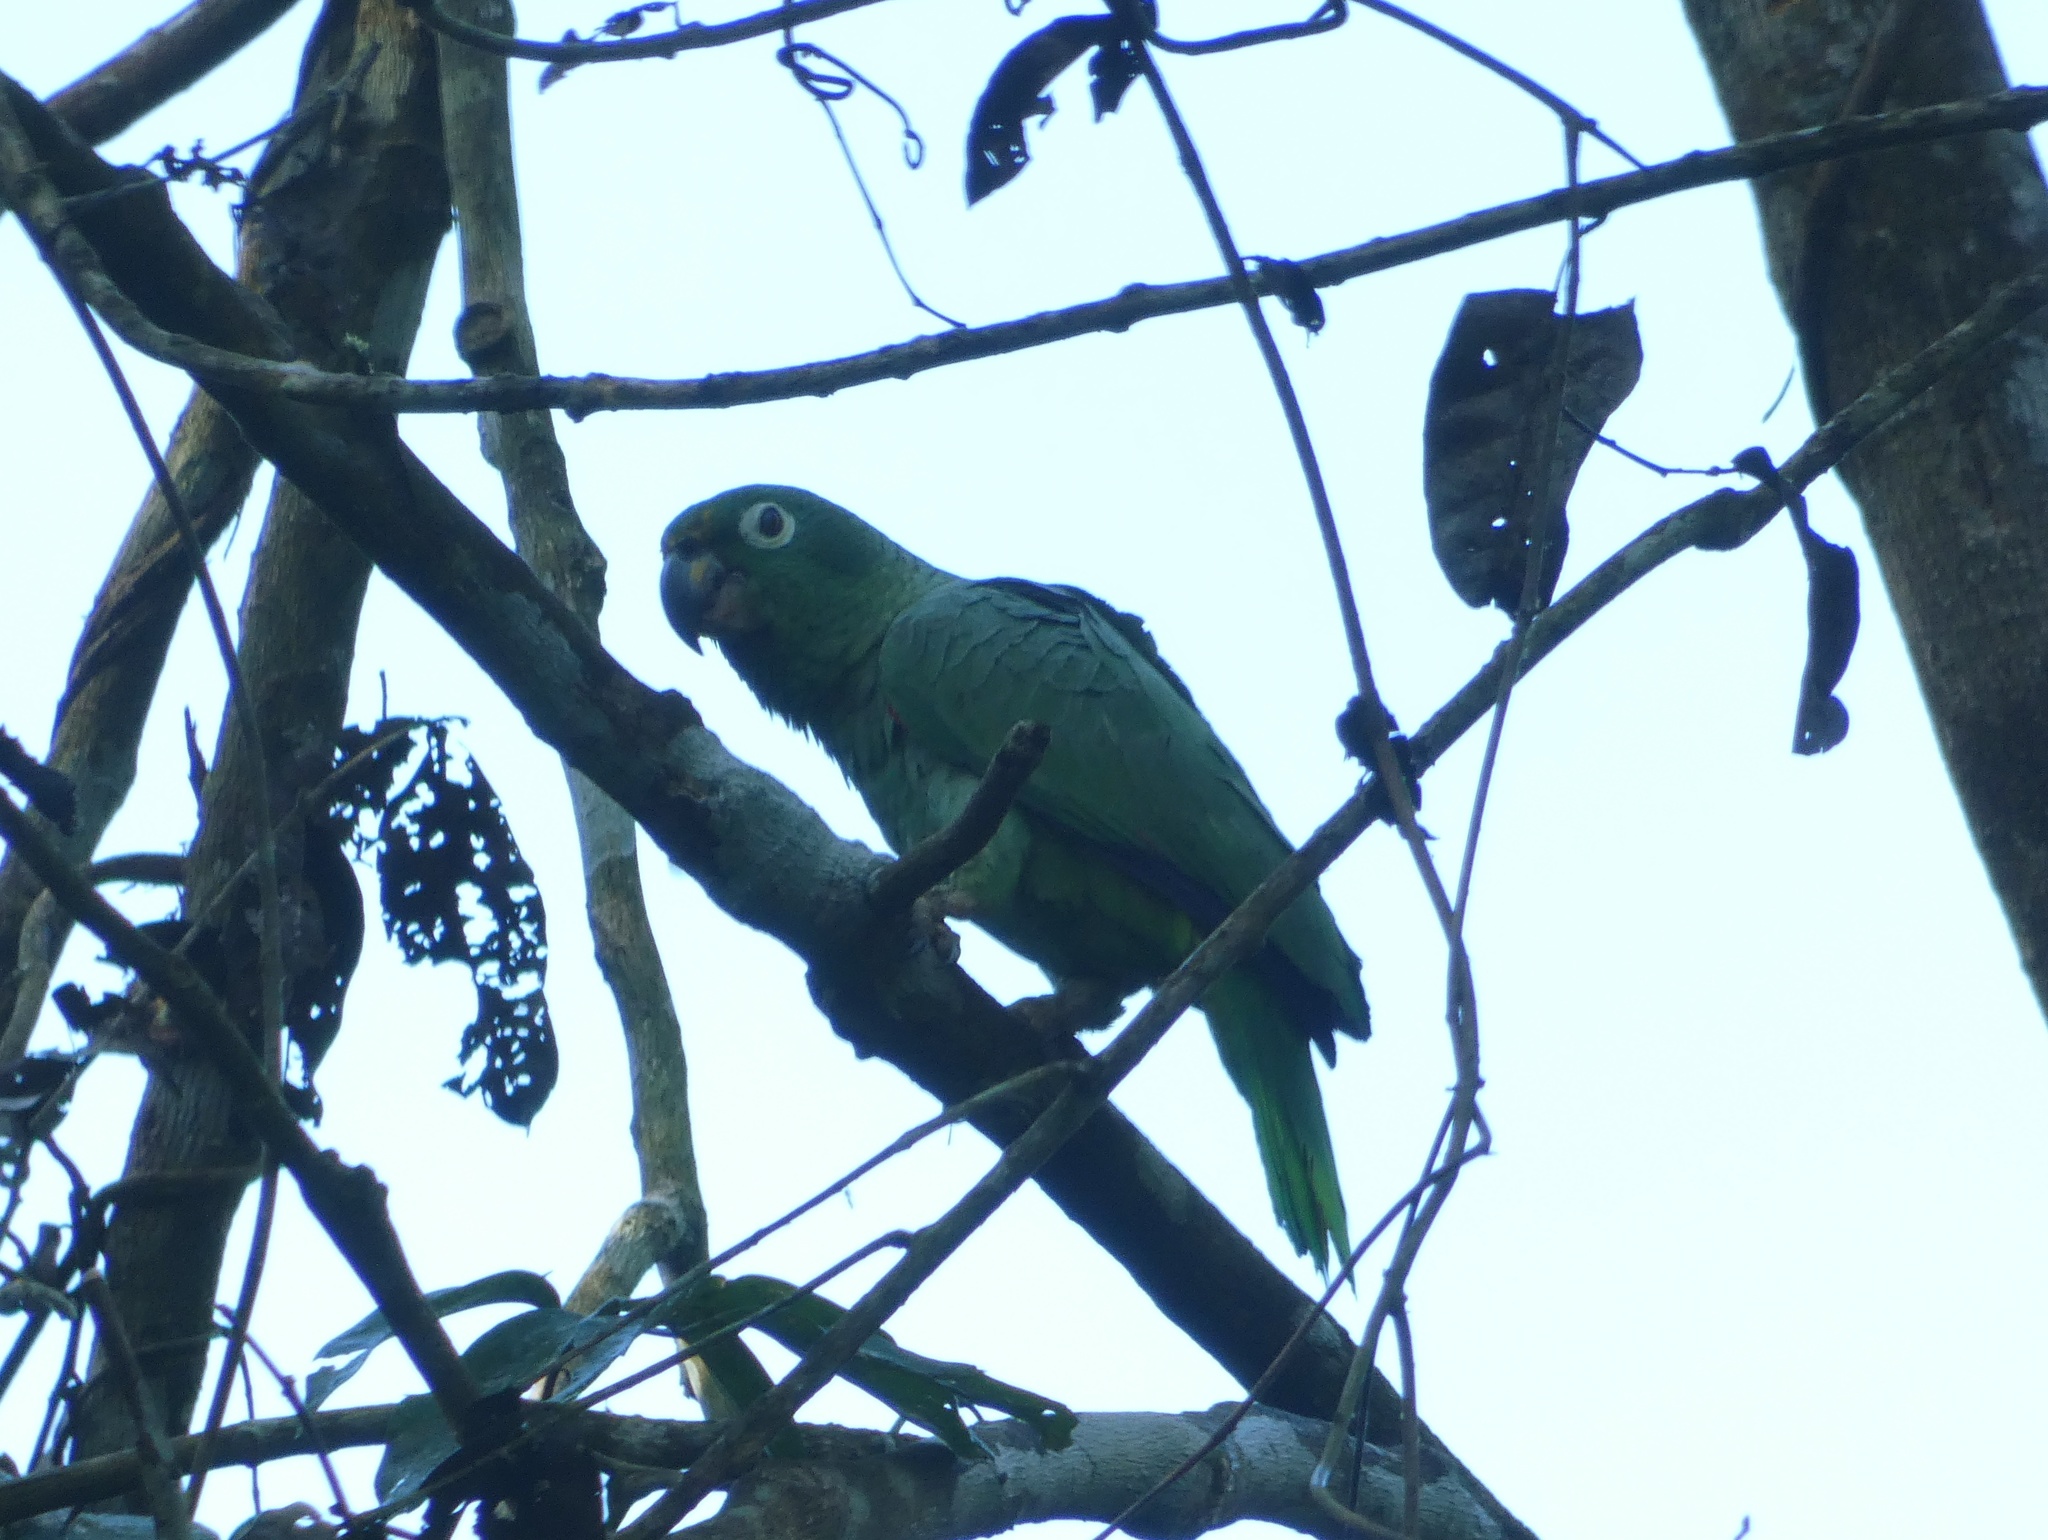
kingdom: Animalia
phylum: Chordata
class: Aves
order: Psittaciformes
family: Psittacidae
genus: Amazona
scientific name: Amazona farinosa
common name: Mealy parrot
